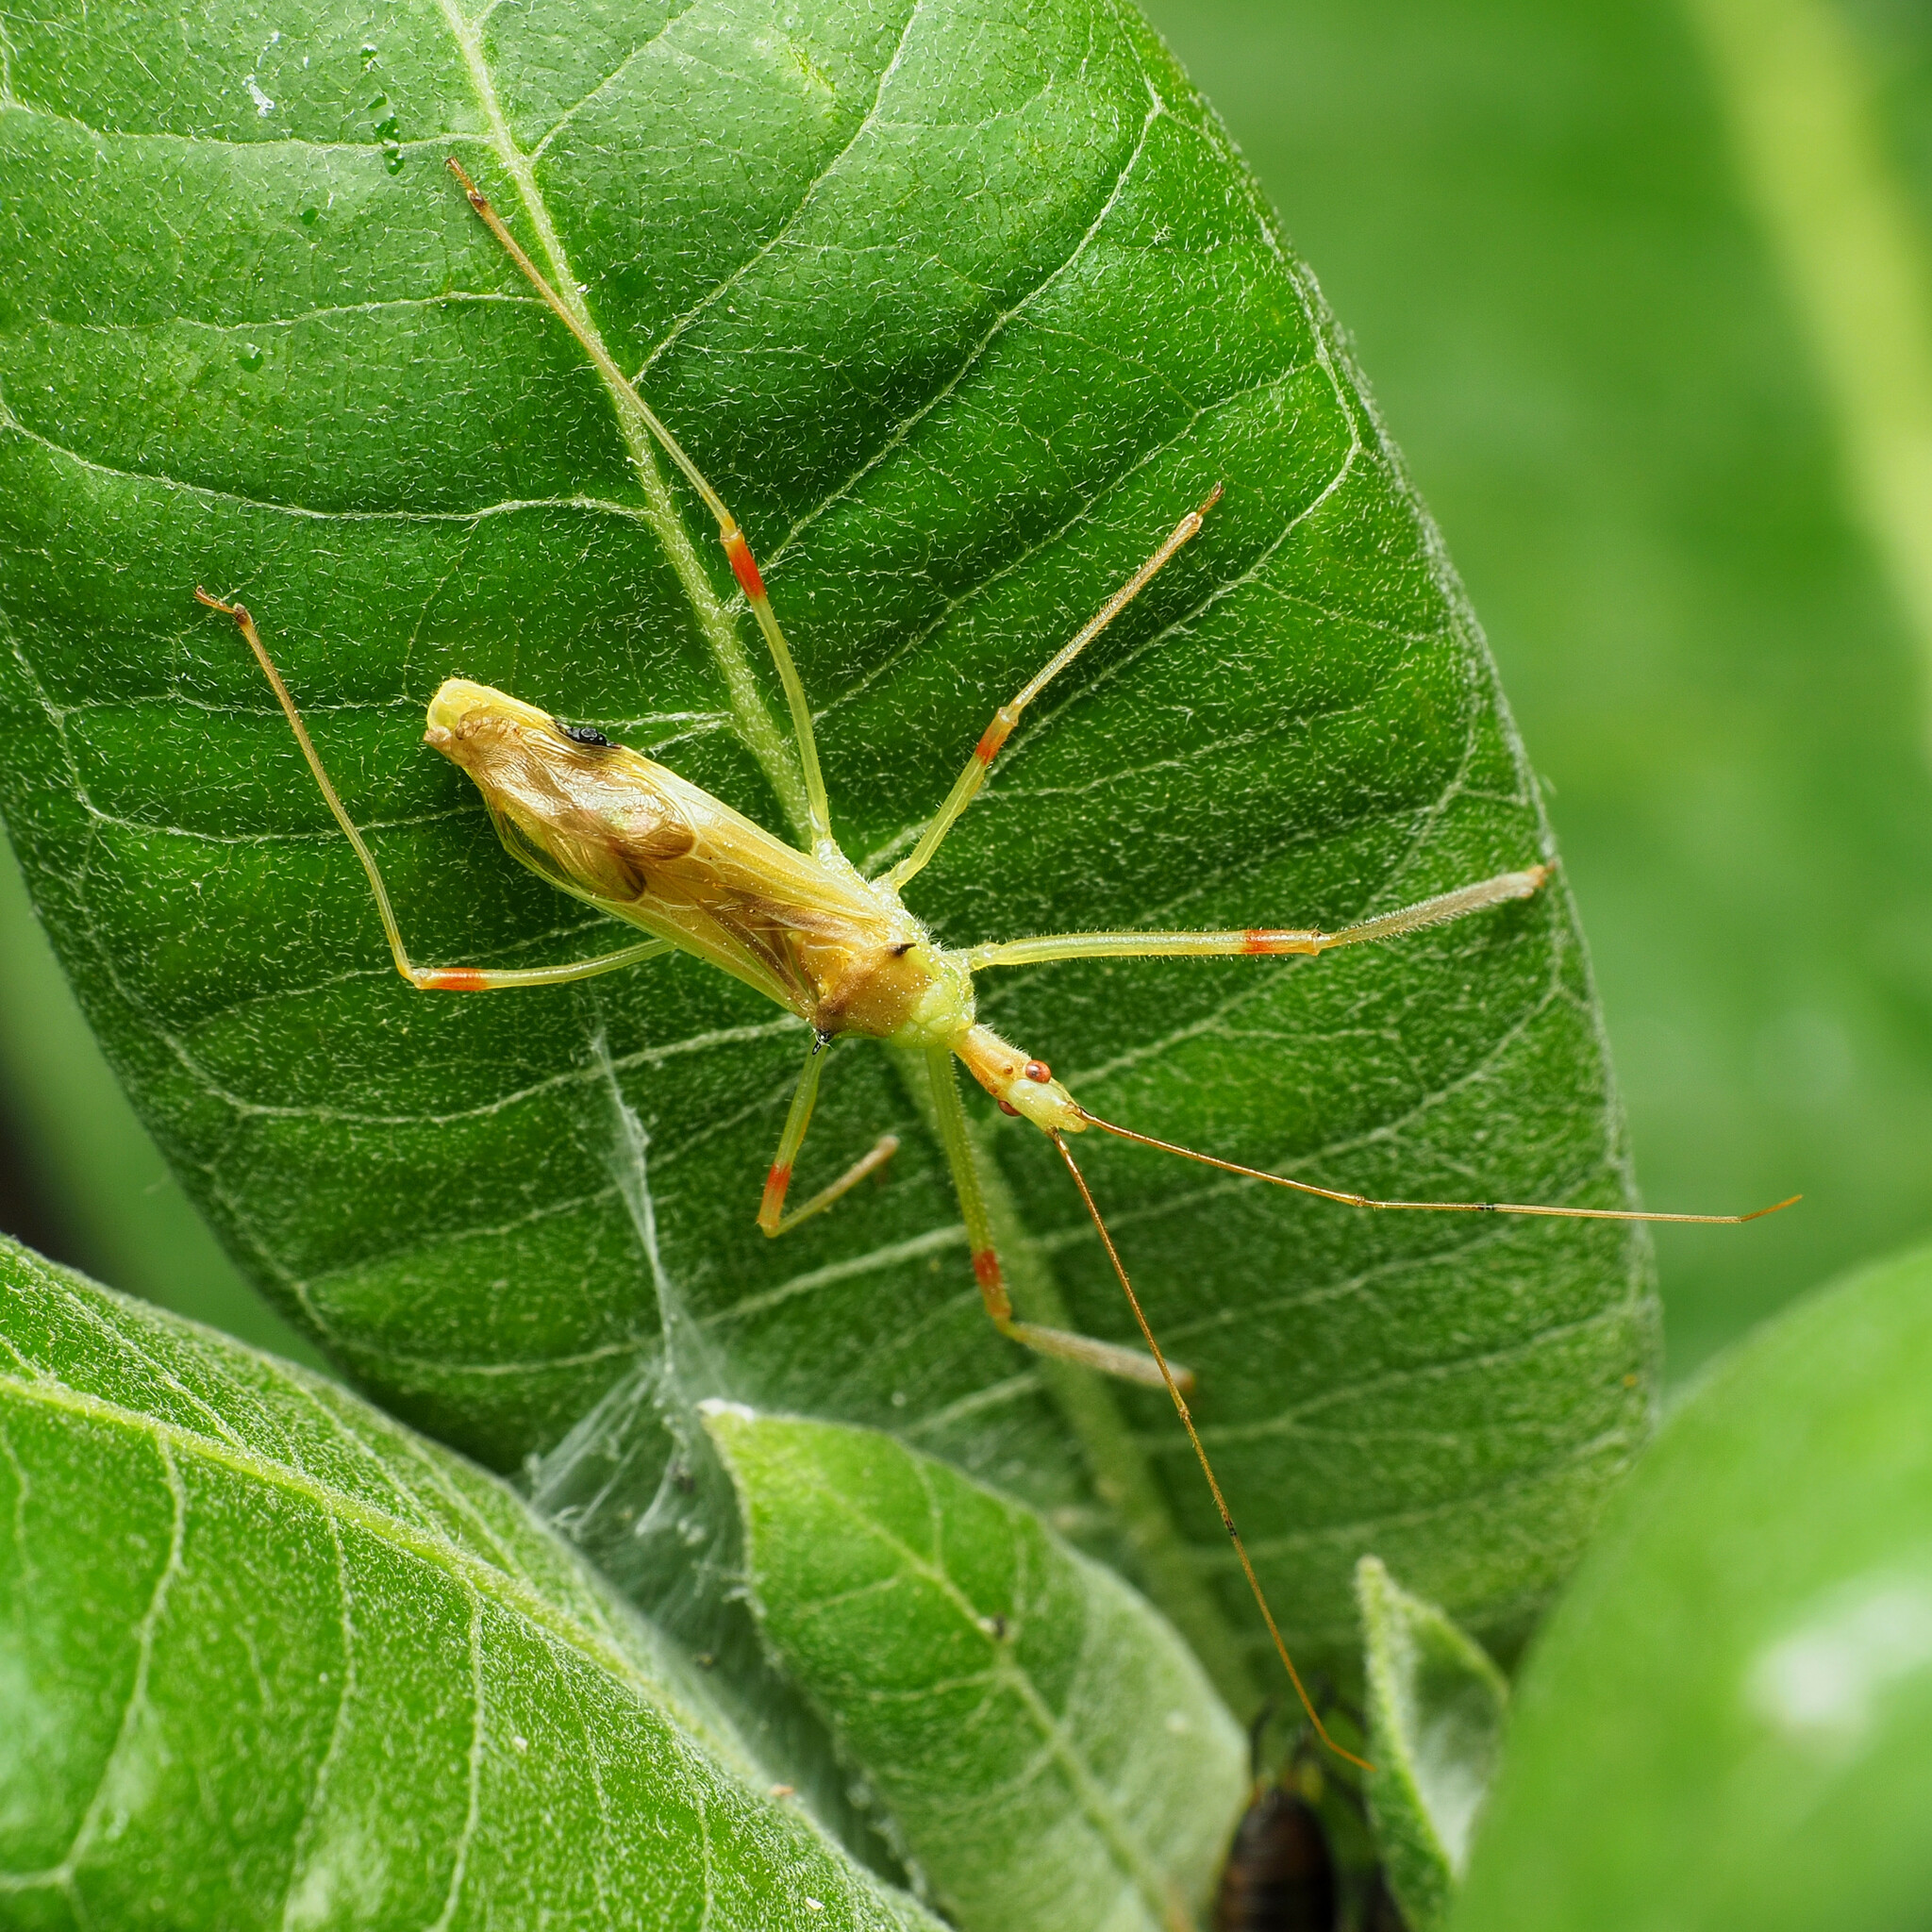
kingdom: Animalia
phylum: Arthropoda
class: Insecta
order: Hemiptera
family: Reduviidae
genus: Zelus
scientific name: Zelus luridus
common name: Pale green assassin bug
